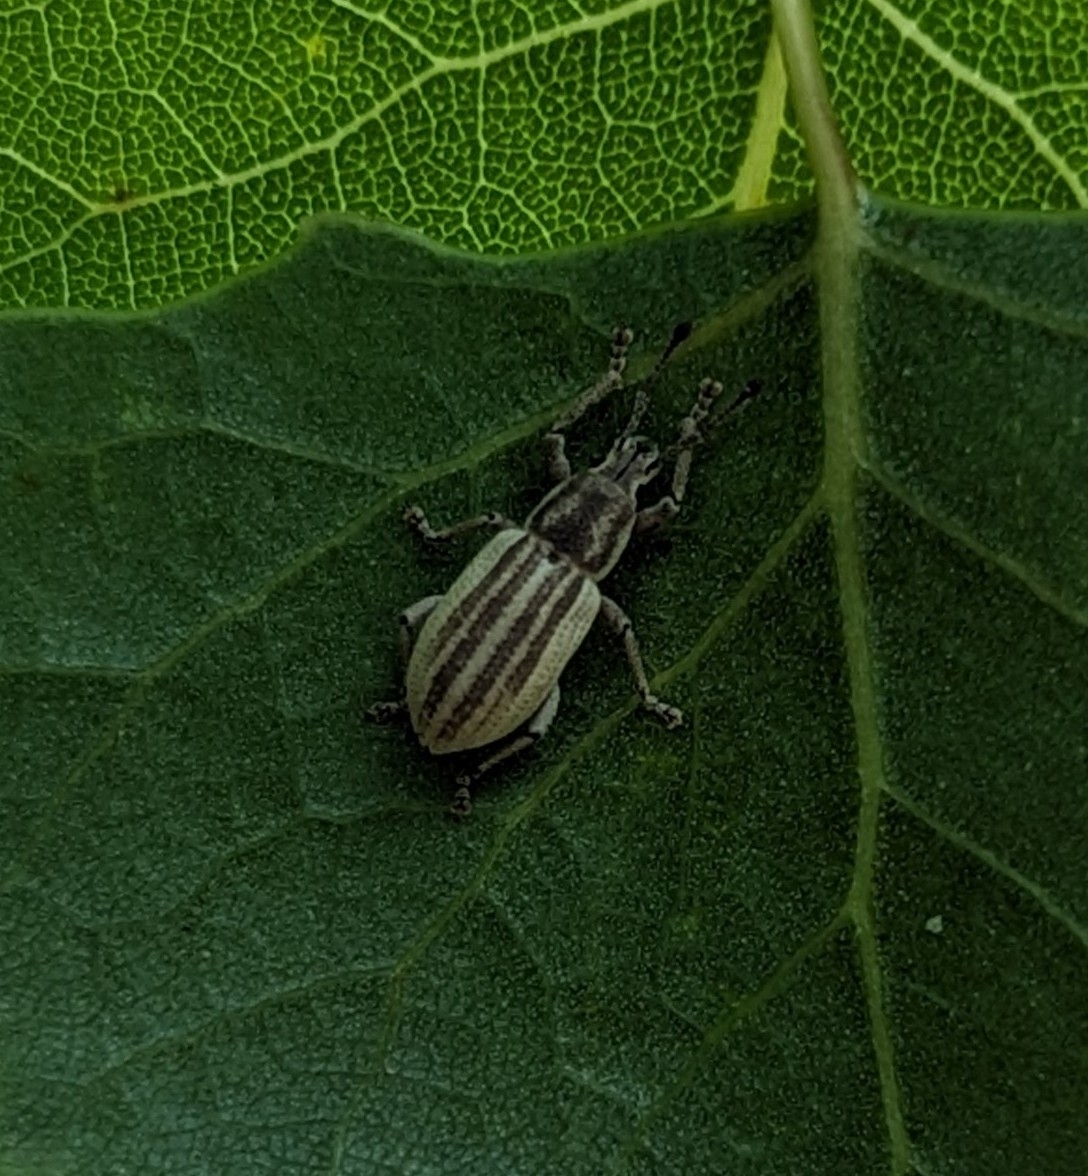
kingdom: Animalia
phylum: Arthropoda
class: Insecta
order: Coleoptera
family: Curculionidae
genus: Aphrastus
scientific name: Aphrastus taeniatus
